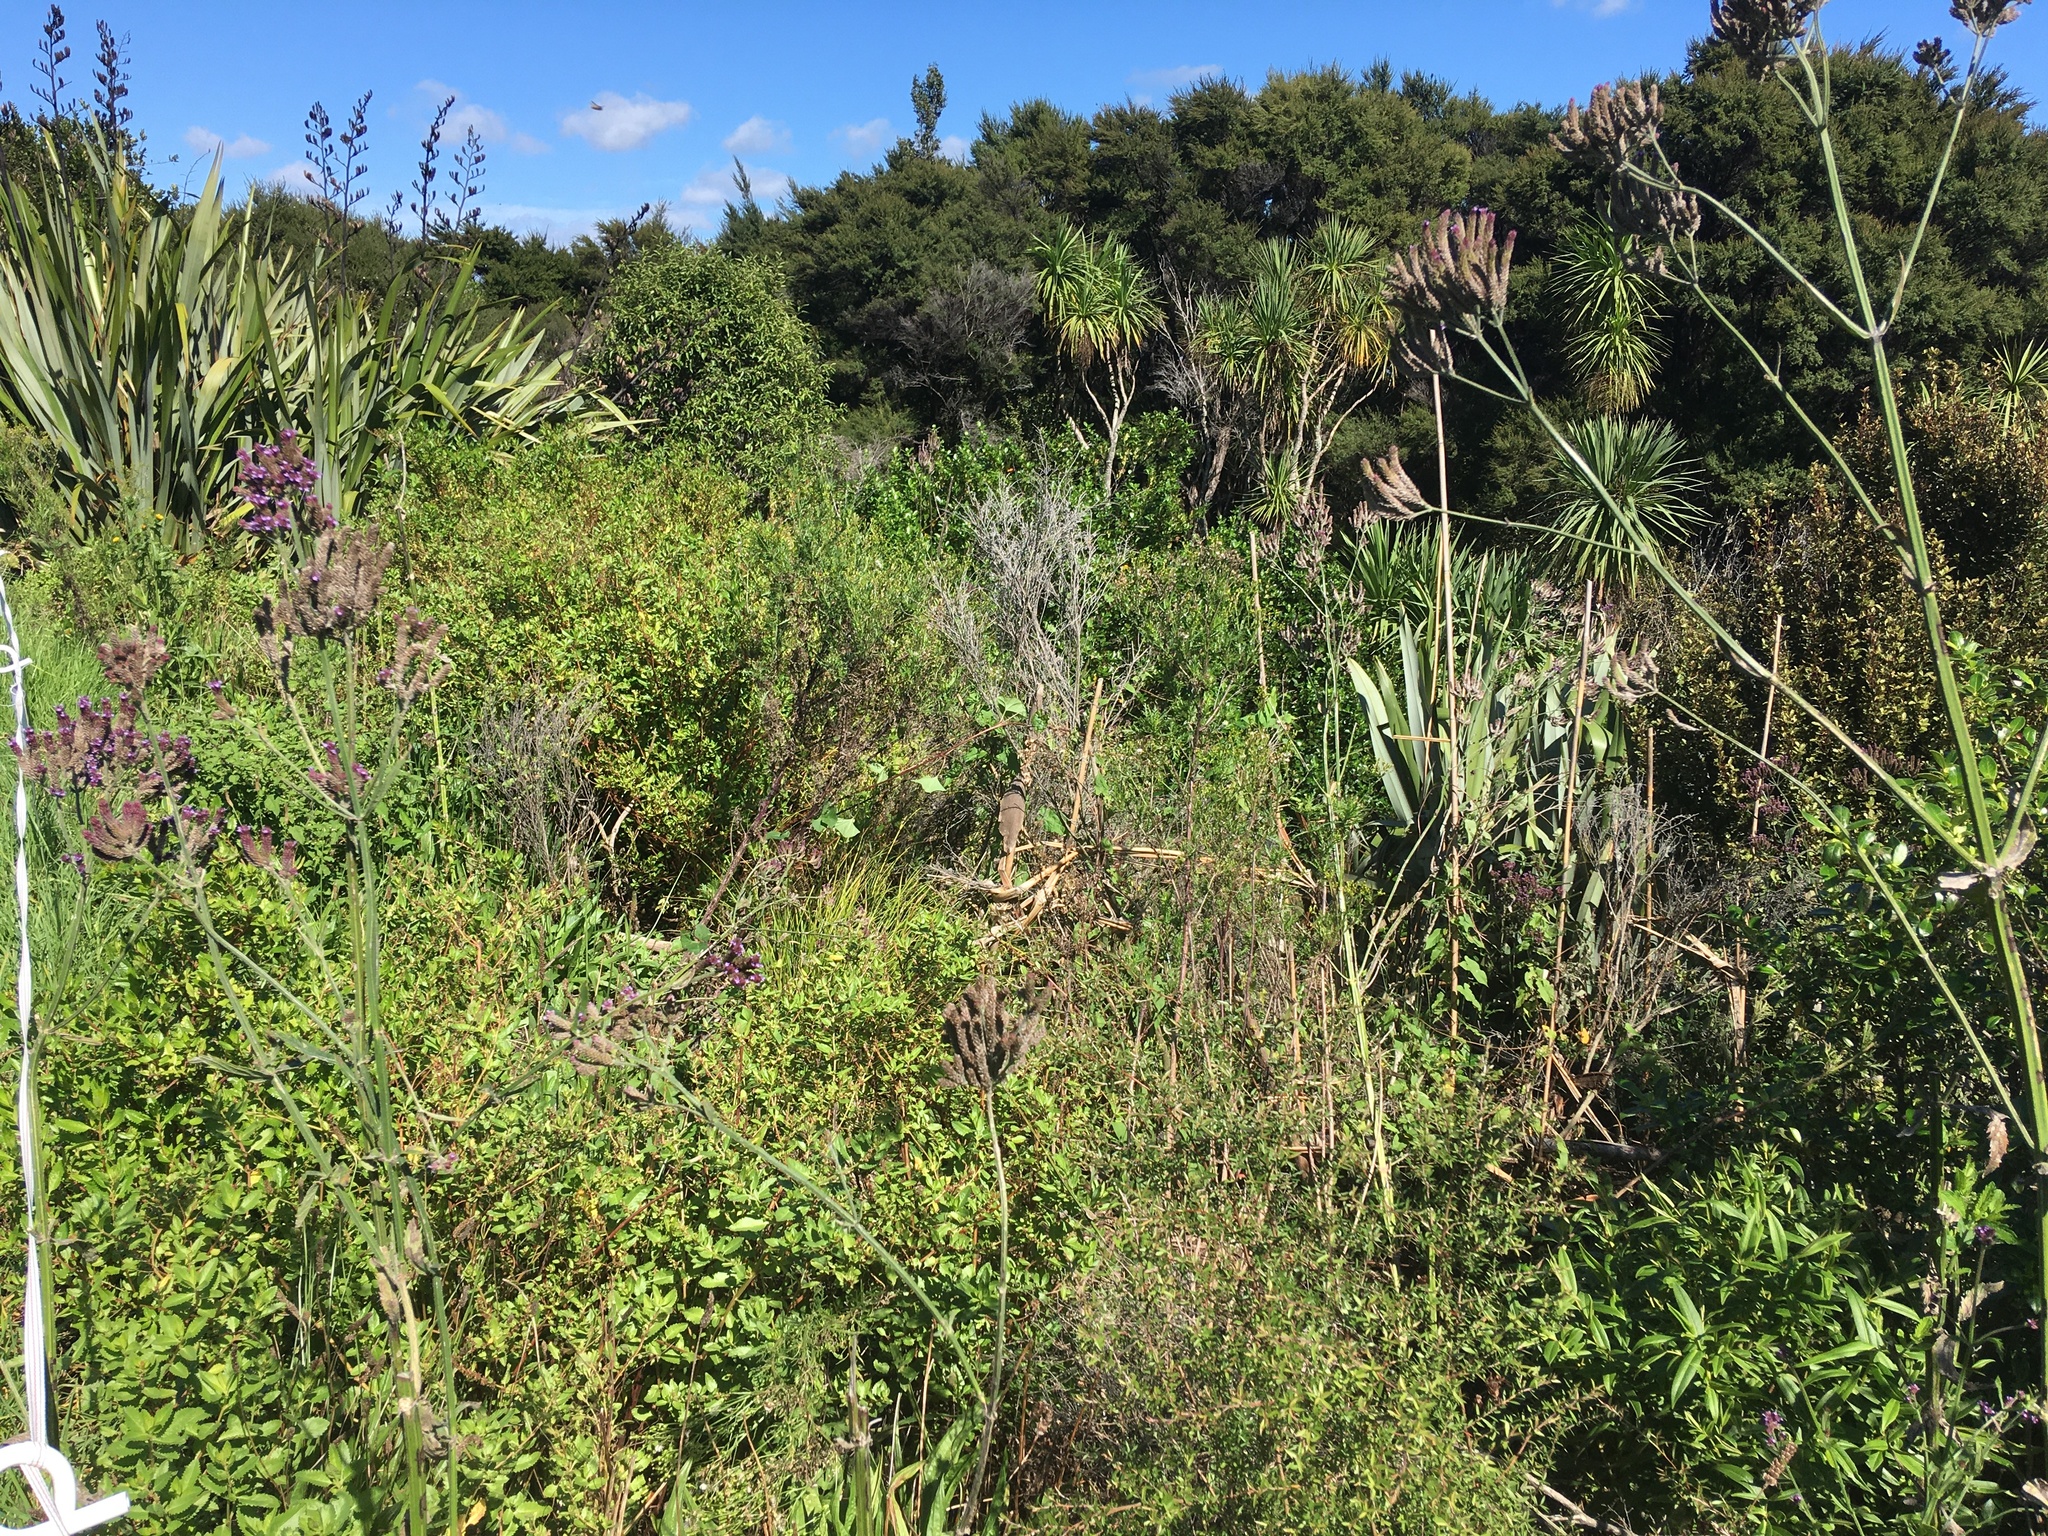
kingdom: Plantae
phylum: Tracheophyta
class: Magnoliopsida
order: Lamiales
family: Verbenaceae
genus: Verbena
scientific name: Verbena incompta
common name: Purpletop vervain
